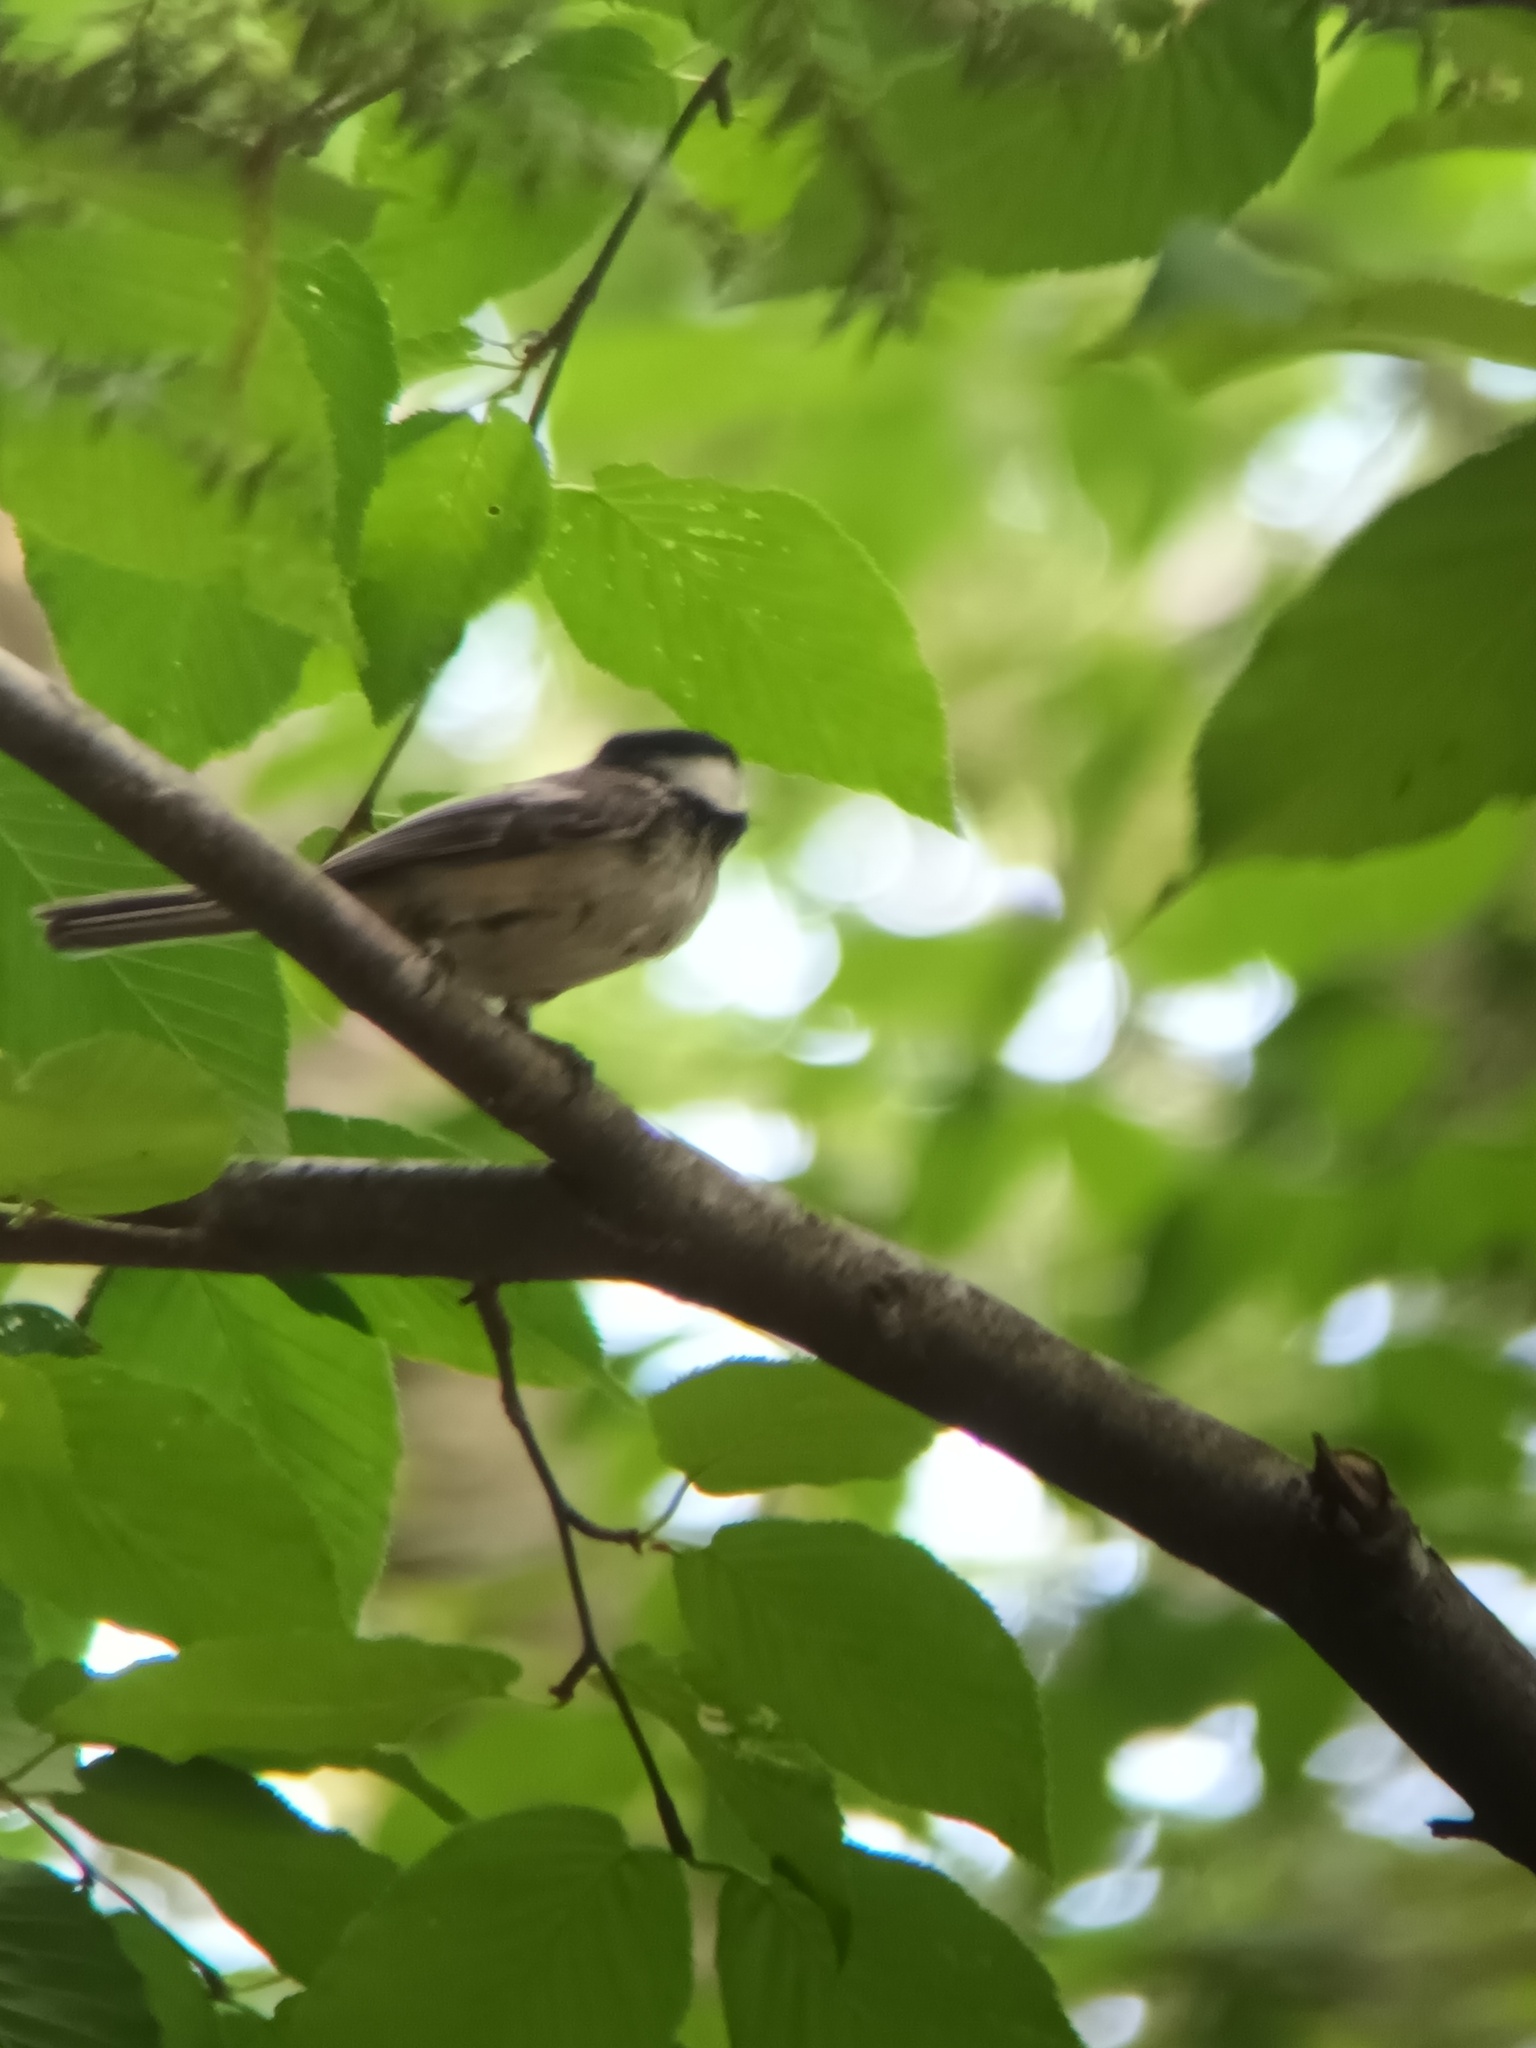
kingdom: Animalia
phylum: Chordata
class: Aves
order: Passeriformes
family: Paridae
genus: Poecile
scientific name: Poecile atricapillus
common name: Black-capped chickadee
